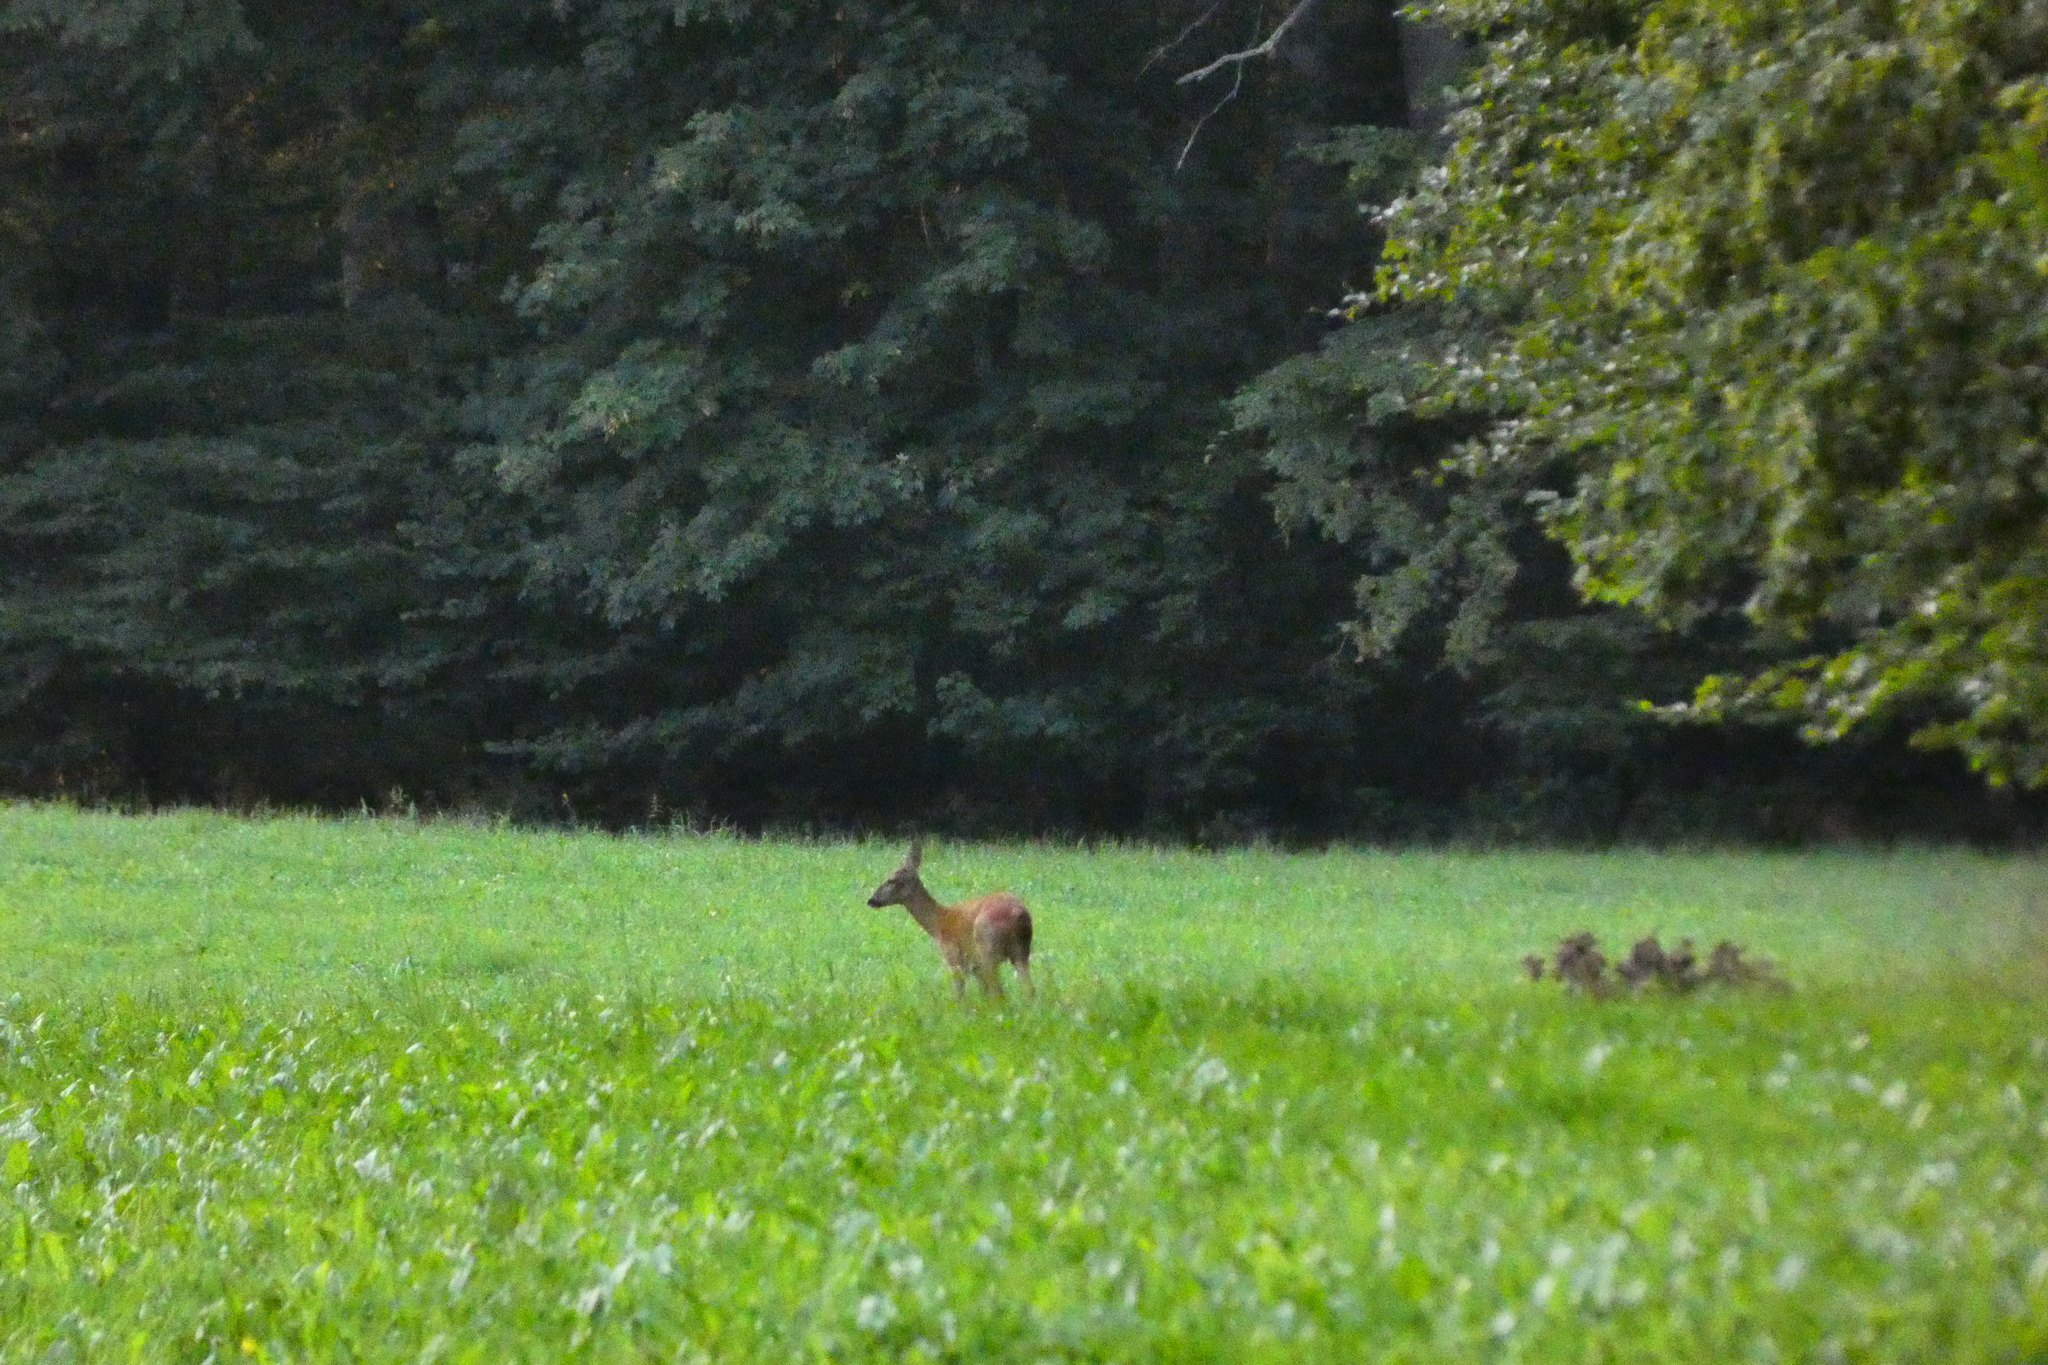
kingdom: Animalia
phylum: Chordata
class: Mammalia
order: Artiodactyla
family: Cervidae
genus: Capreolus
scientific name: Capreolus capreolus
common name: Western roe deer
